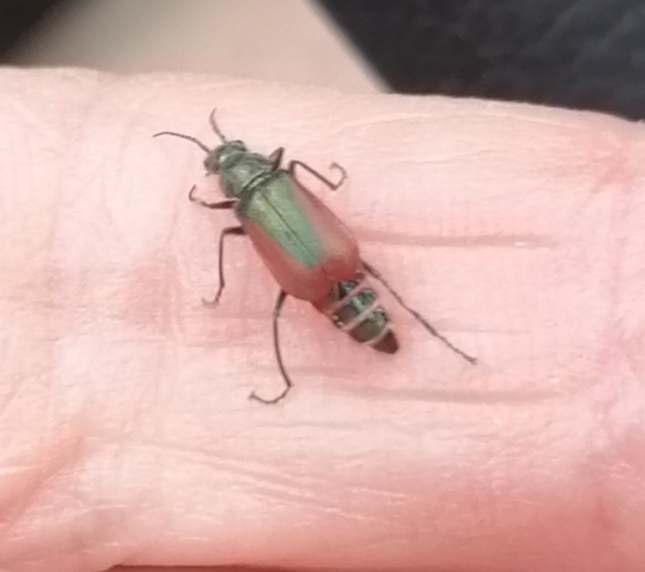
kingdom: Animalia
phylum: Arthropoda
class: Insecta
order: Coleoptera
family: Melyridae
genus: Malachius
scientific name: Malachius aeneus
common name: Scarlet malachite beetle
